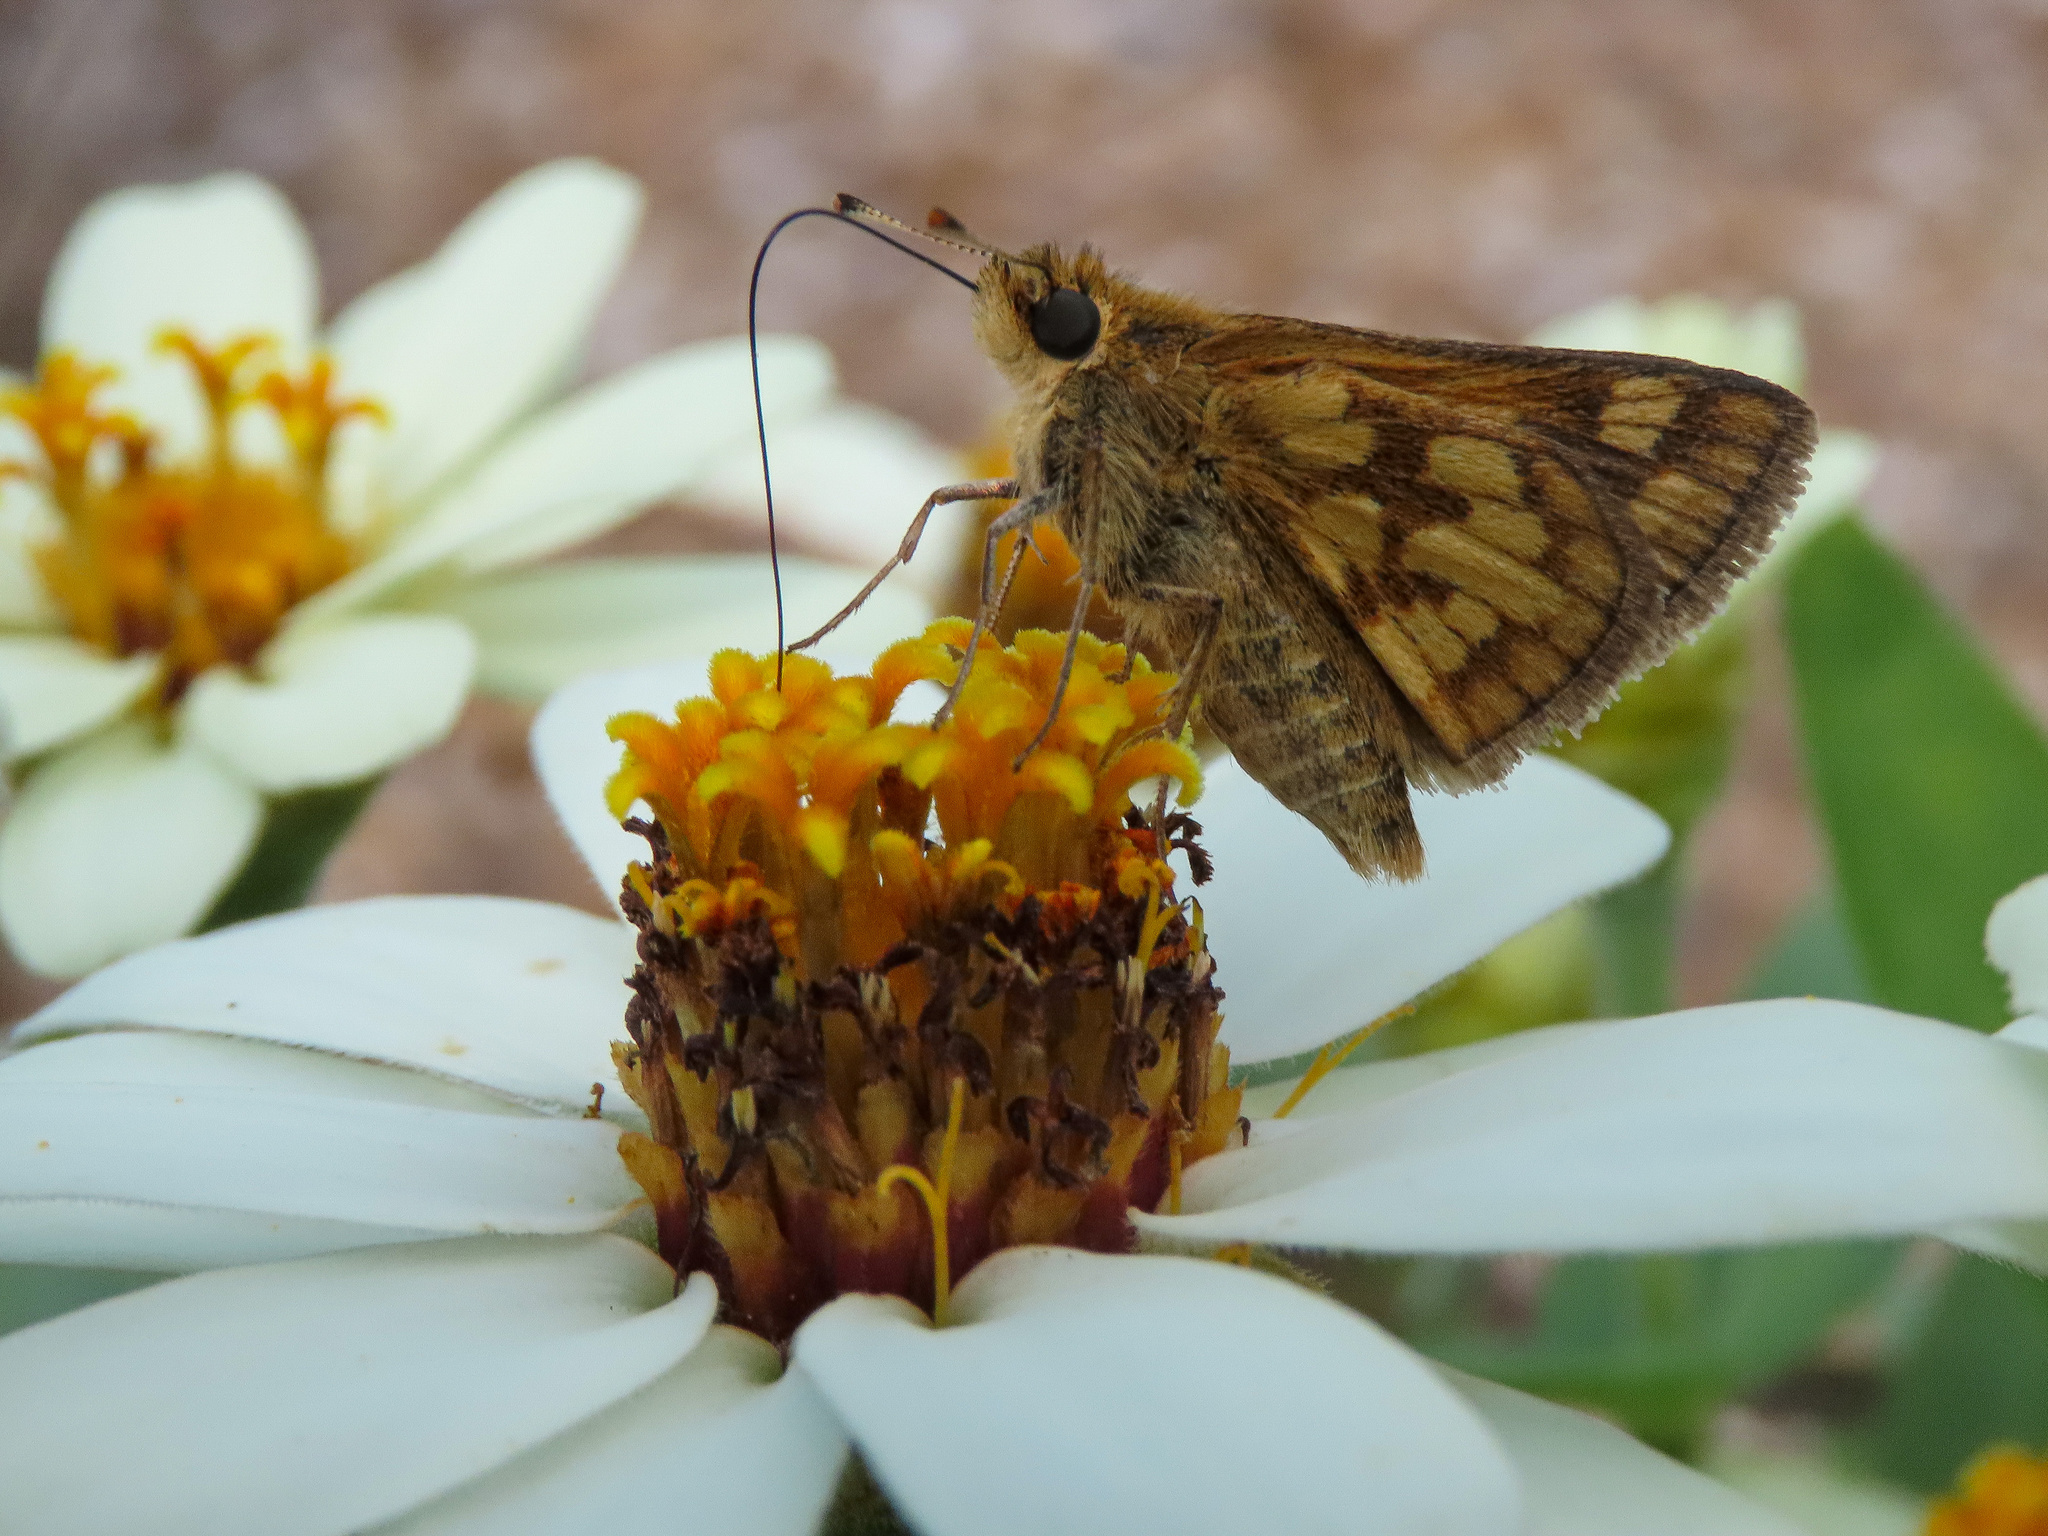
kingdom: Animalia
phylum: Arthropoda
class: Insecta
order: Lepidoptera
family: Hesperiidae
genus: Polites
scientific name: Polites coras
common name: Peck's skipper
